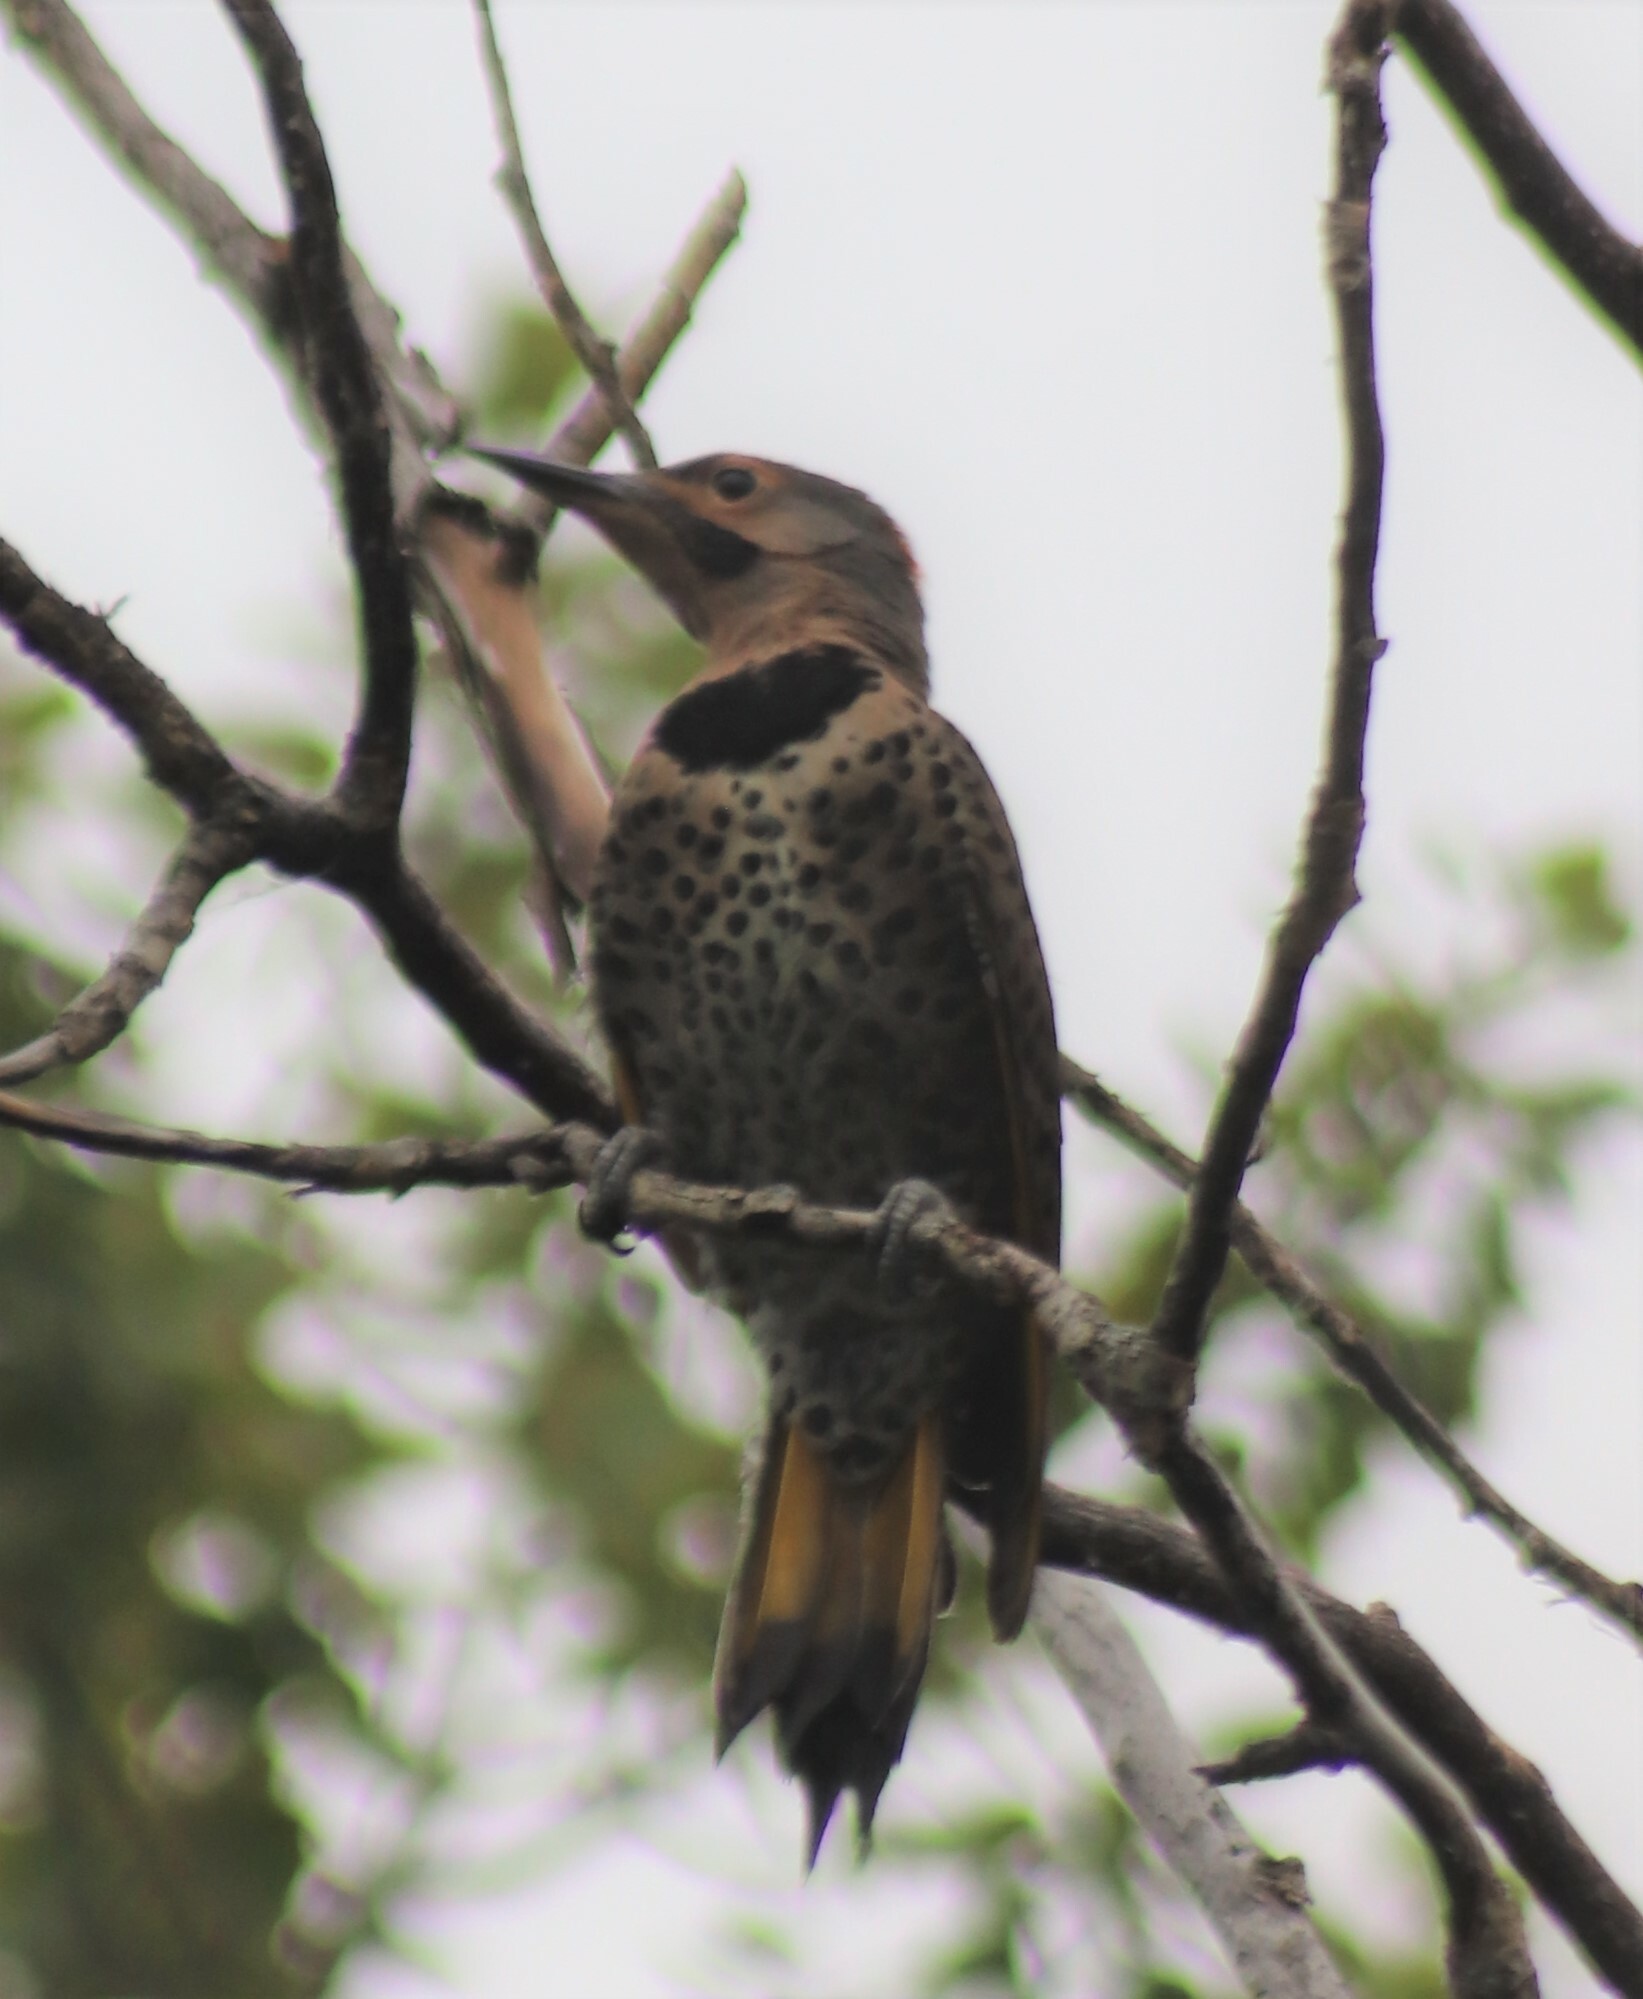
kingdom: Animalia
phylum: Chordata
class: Aves
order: Piciformes
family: Picidae
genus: Colaptes
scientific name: Colaptes auratus
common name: Northern flicker
